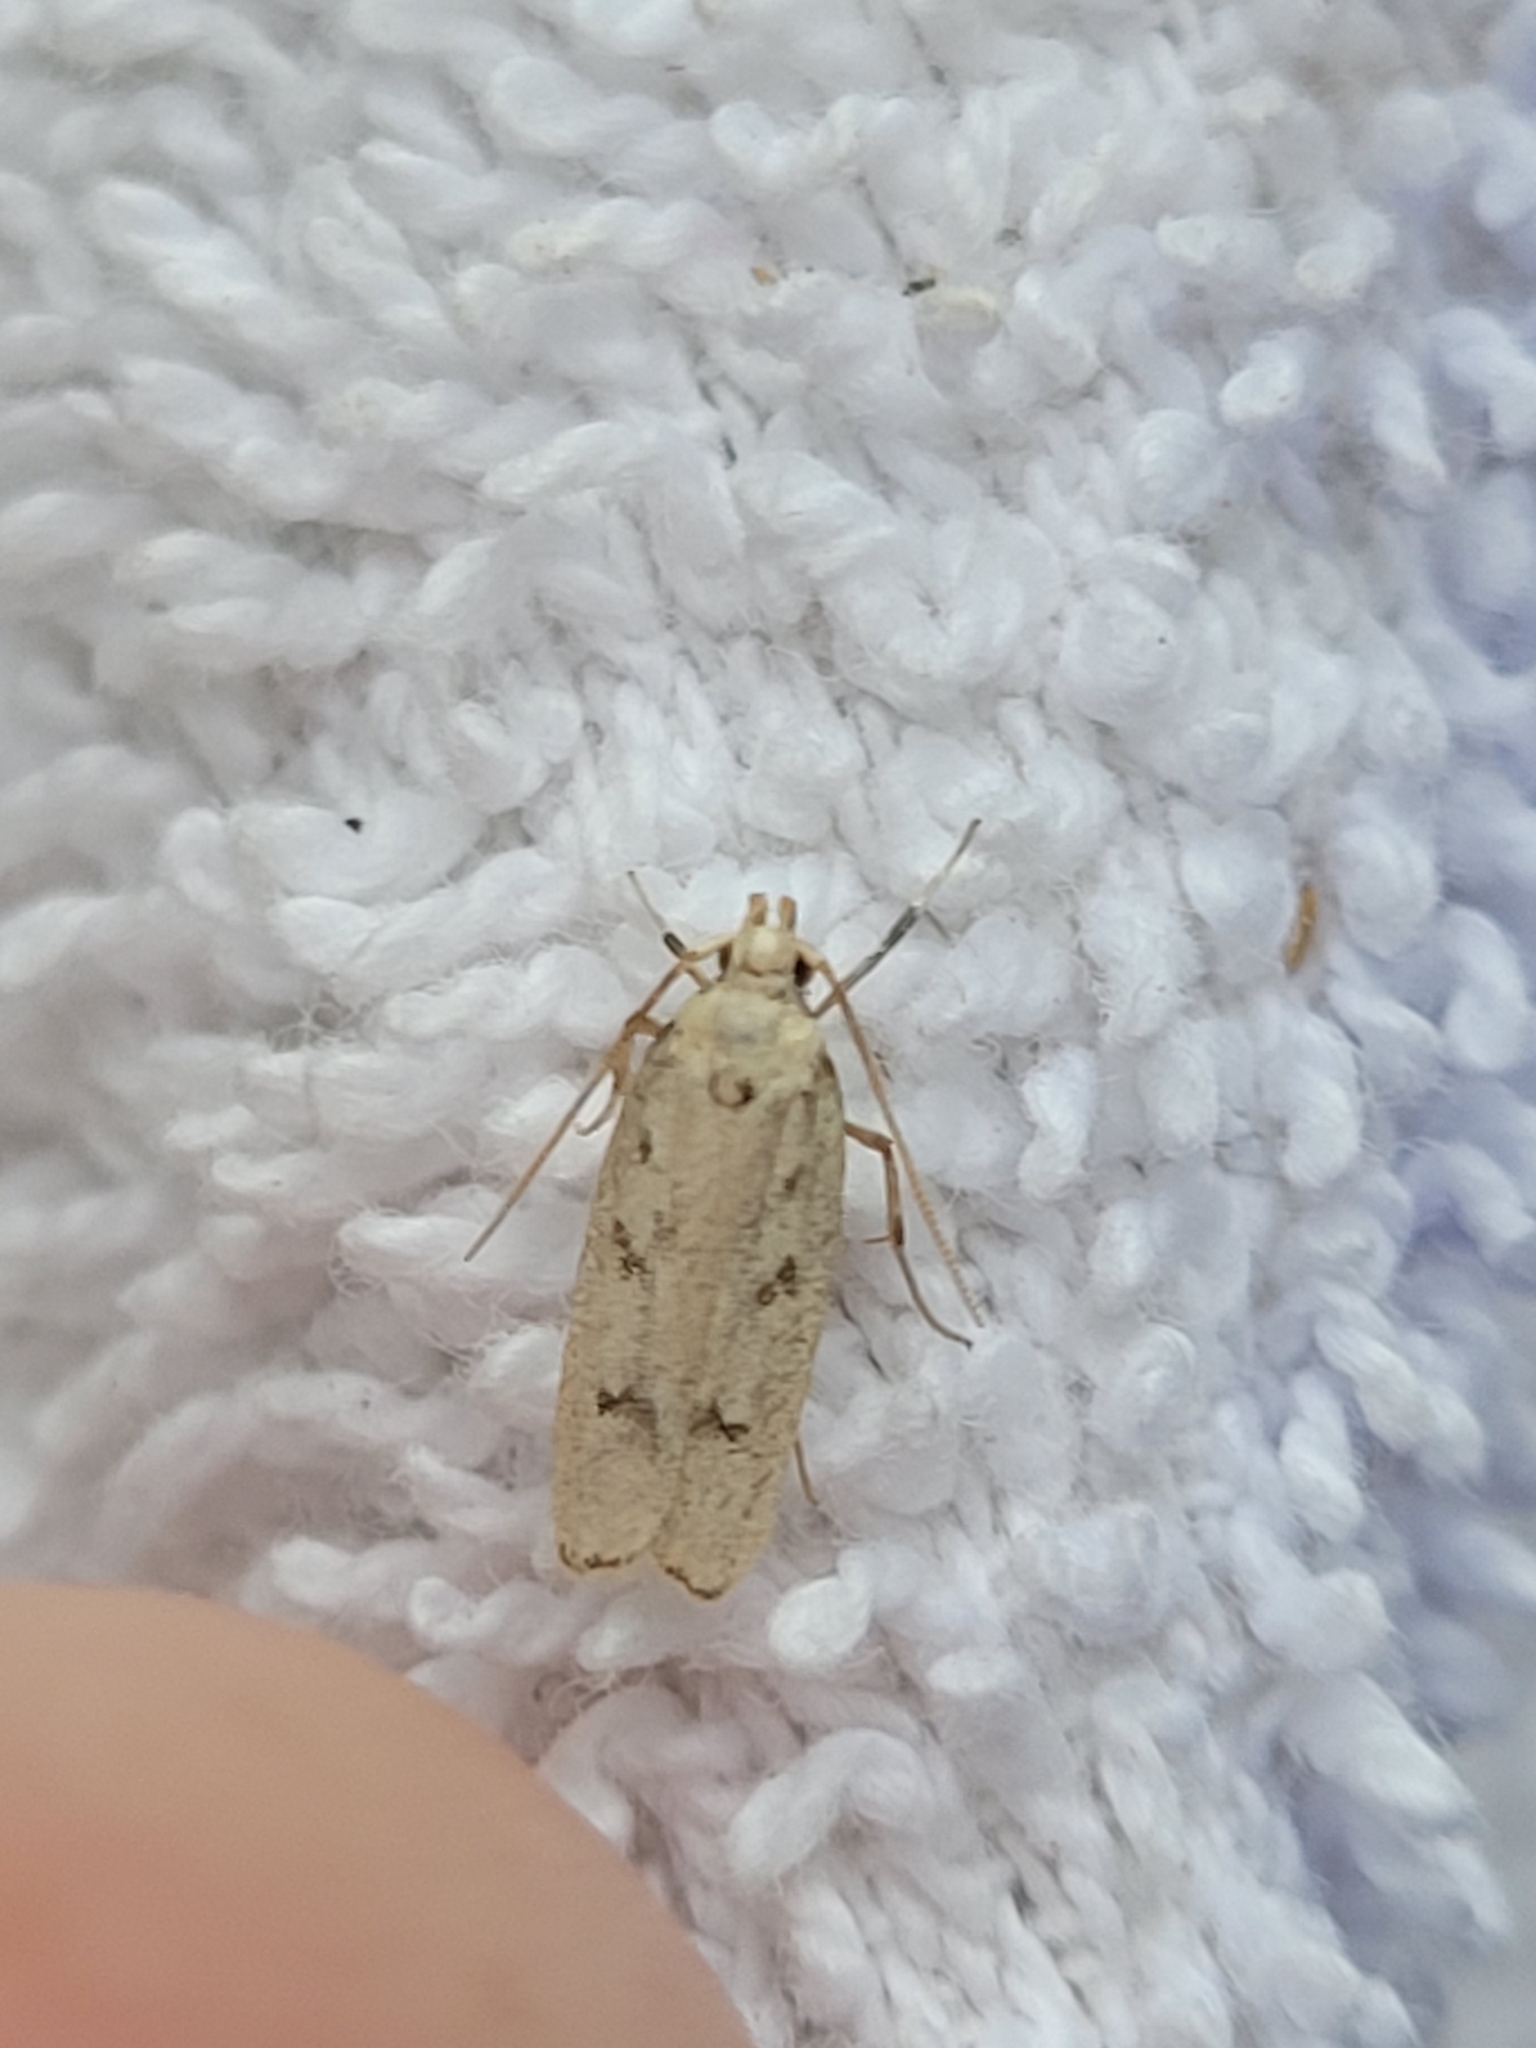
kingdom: Animalia
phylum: Arthropoda
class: Insecta
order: Lepidoptera
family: Autostichidae
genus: Glyphidocera
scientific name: Glyphidocera lactiflosella
